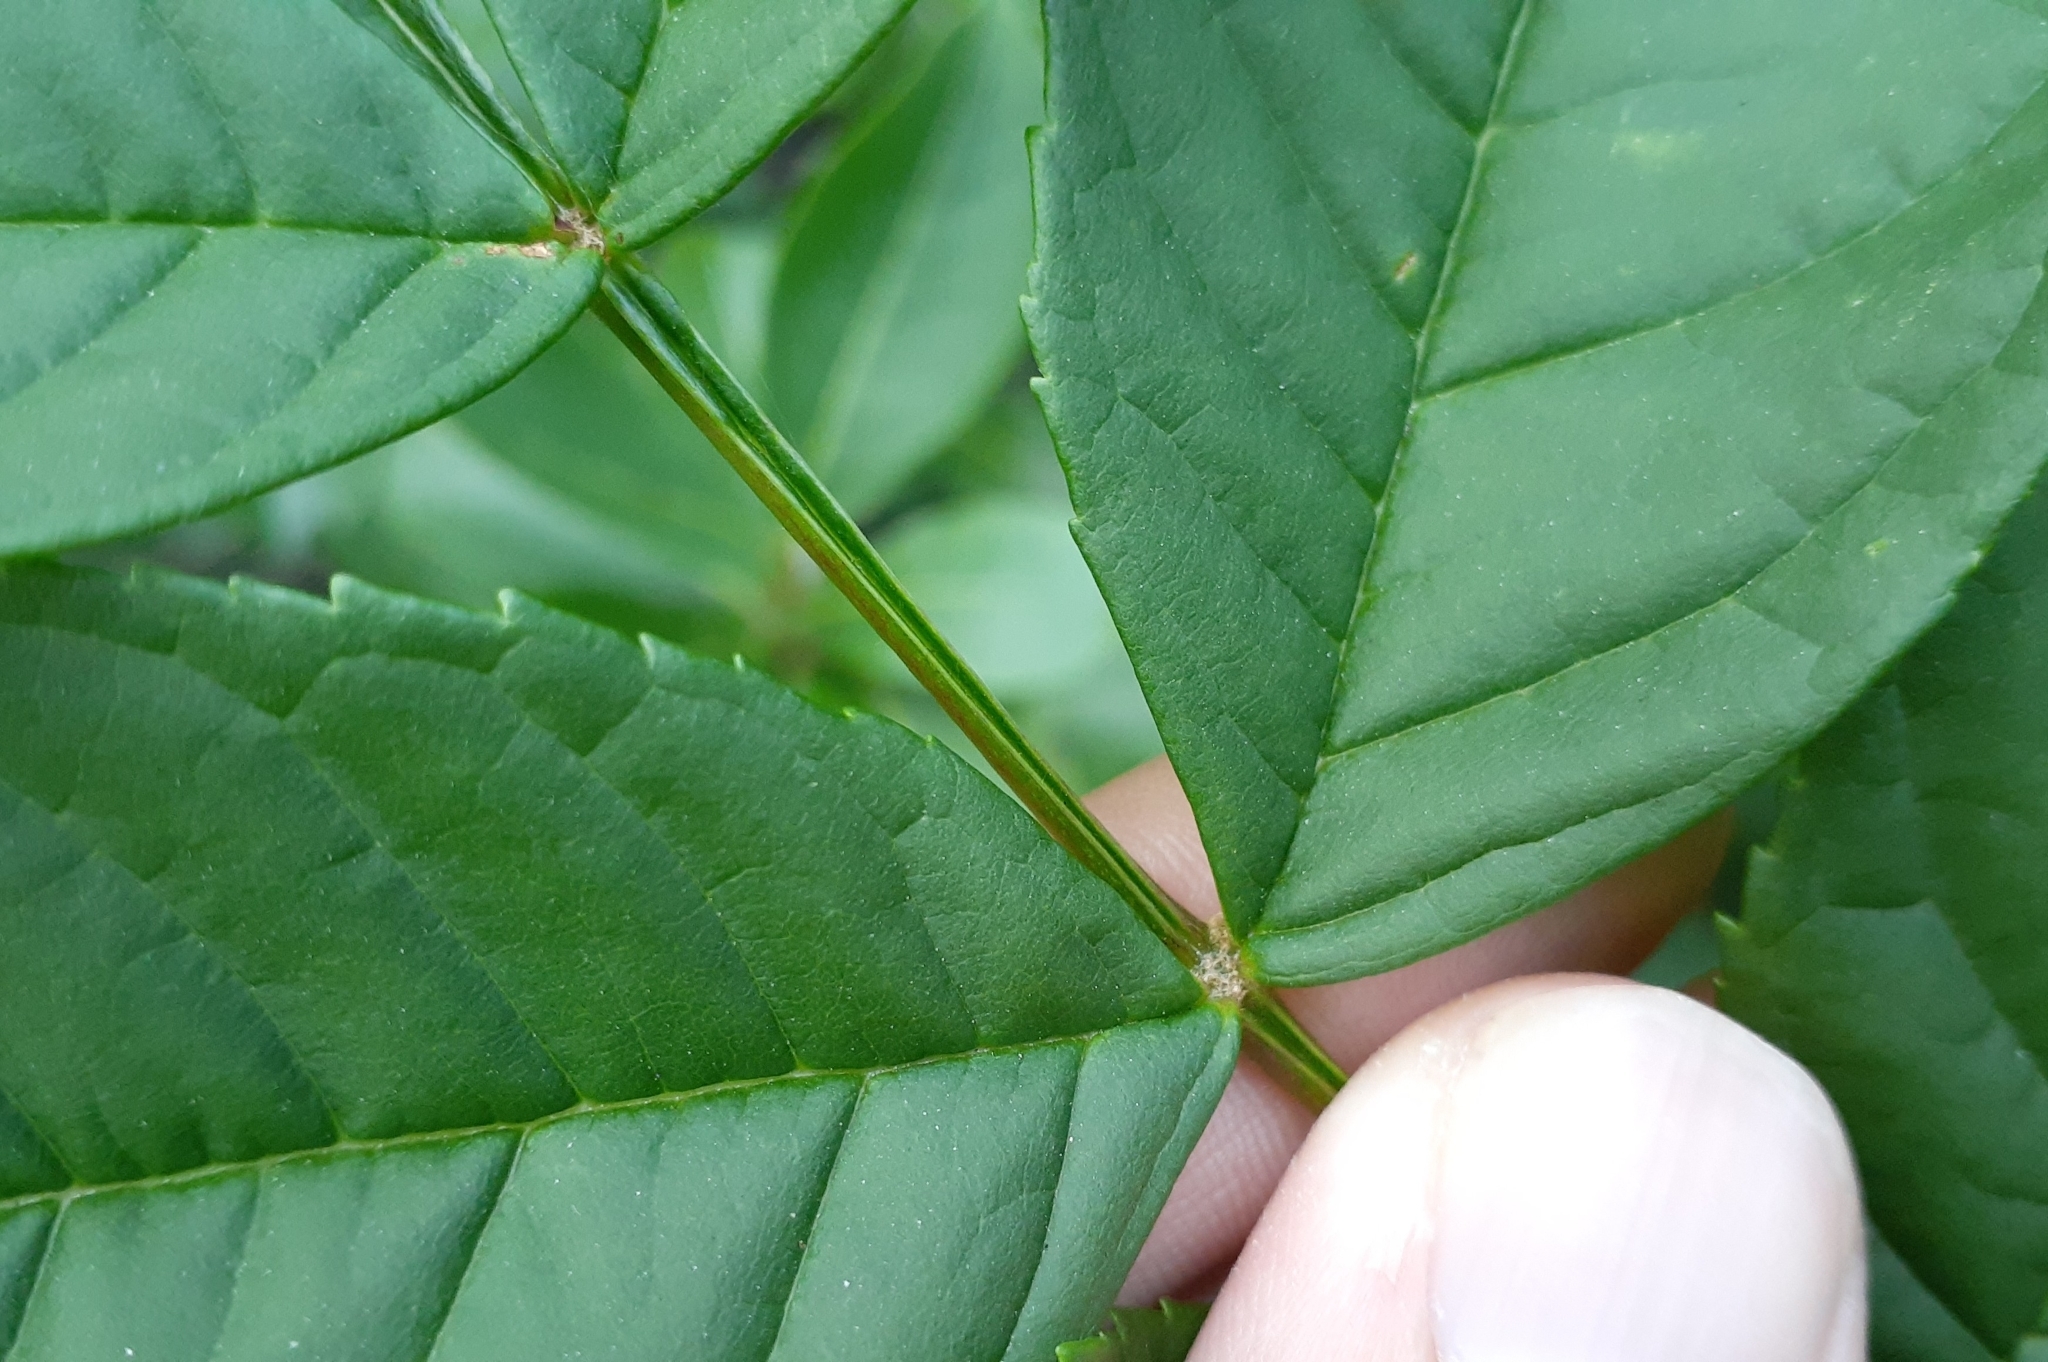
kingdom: Plantae
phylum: Tracheophyta
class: Magnoliopsida
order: Lamiales
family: Oleaceae
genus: Fraxinus
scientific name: Fraxinus nigra
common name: Black ash
